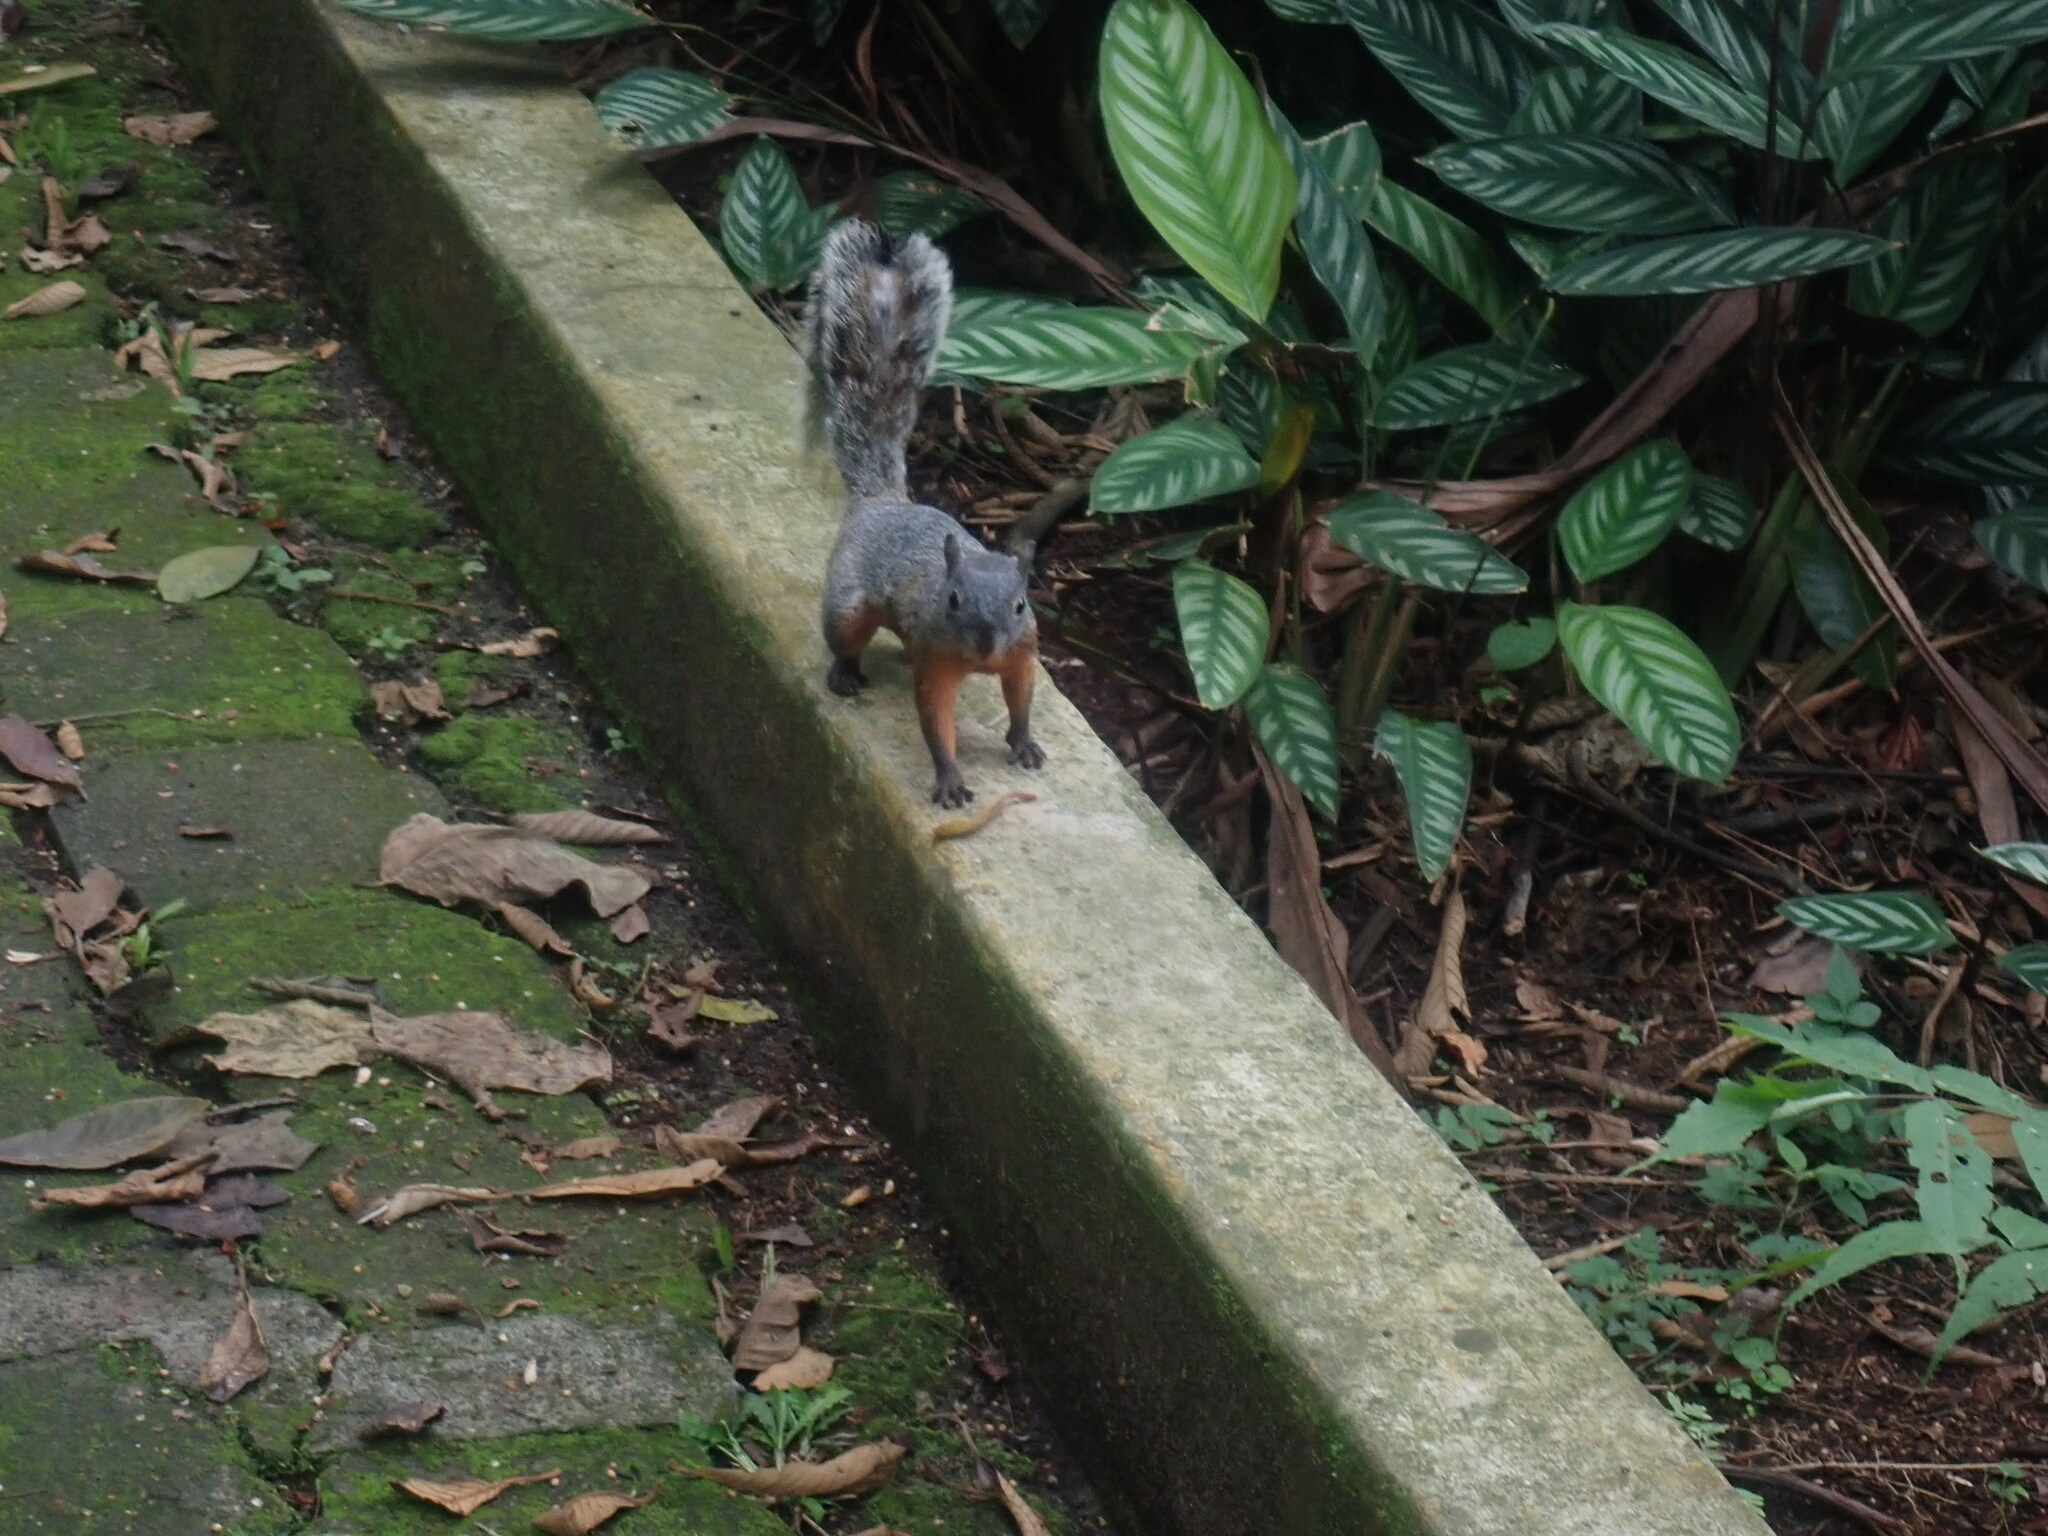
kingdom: Animalia
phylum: Chordata
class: Mammalia
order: Rodentia
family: Sciuridae
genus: Sciurus
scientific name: Sciurus aureogaster
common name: Red-bellied squirrel
